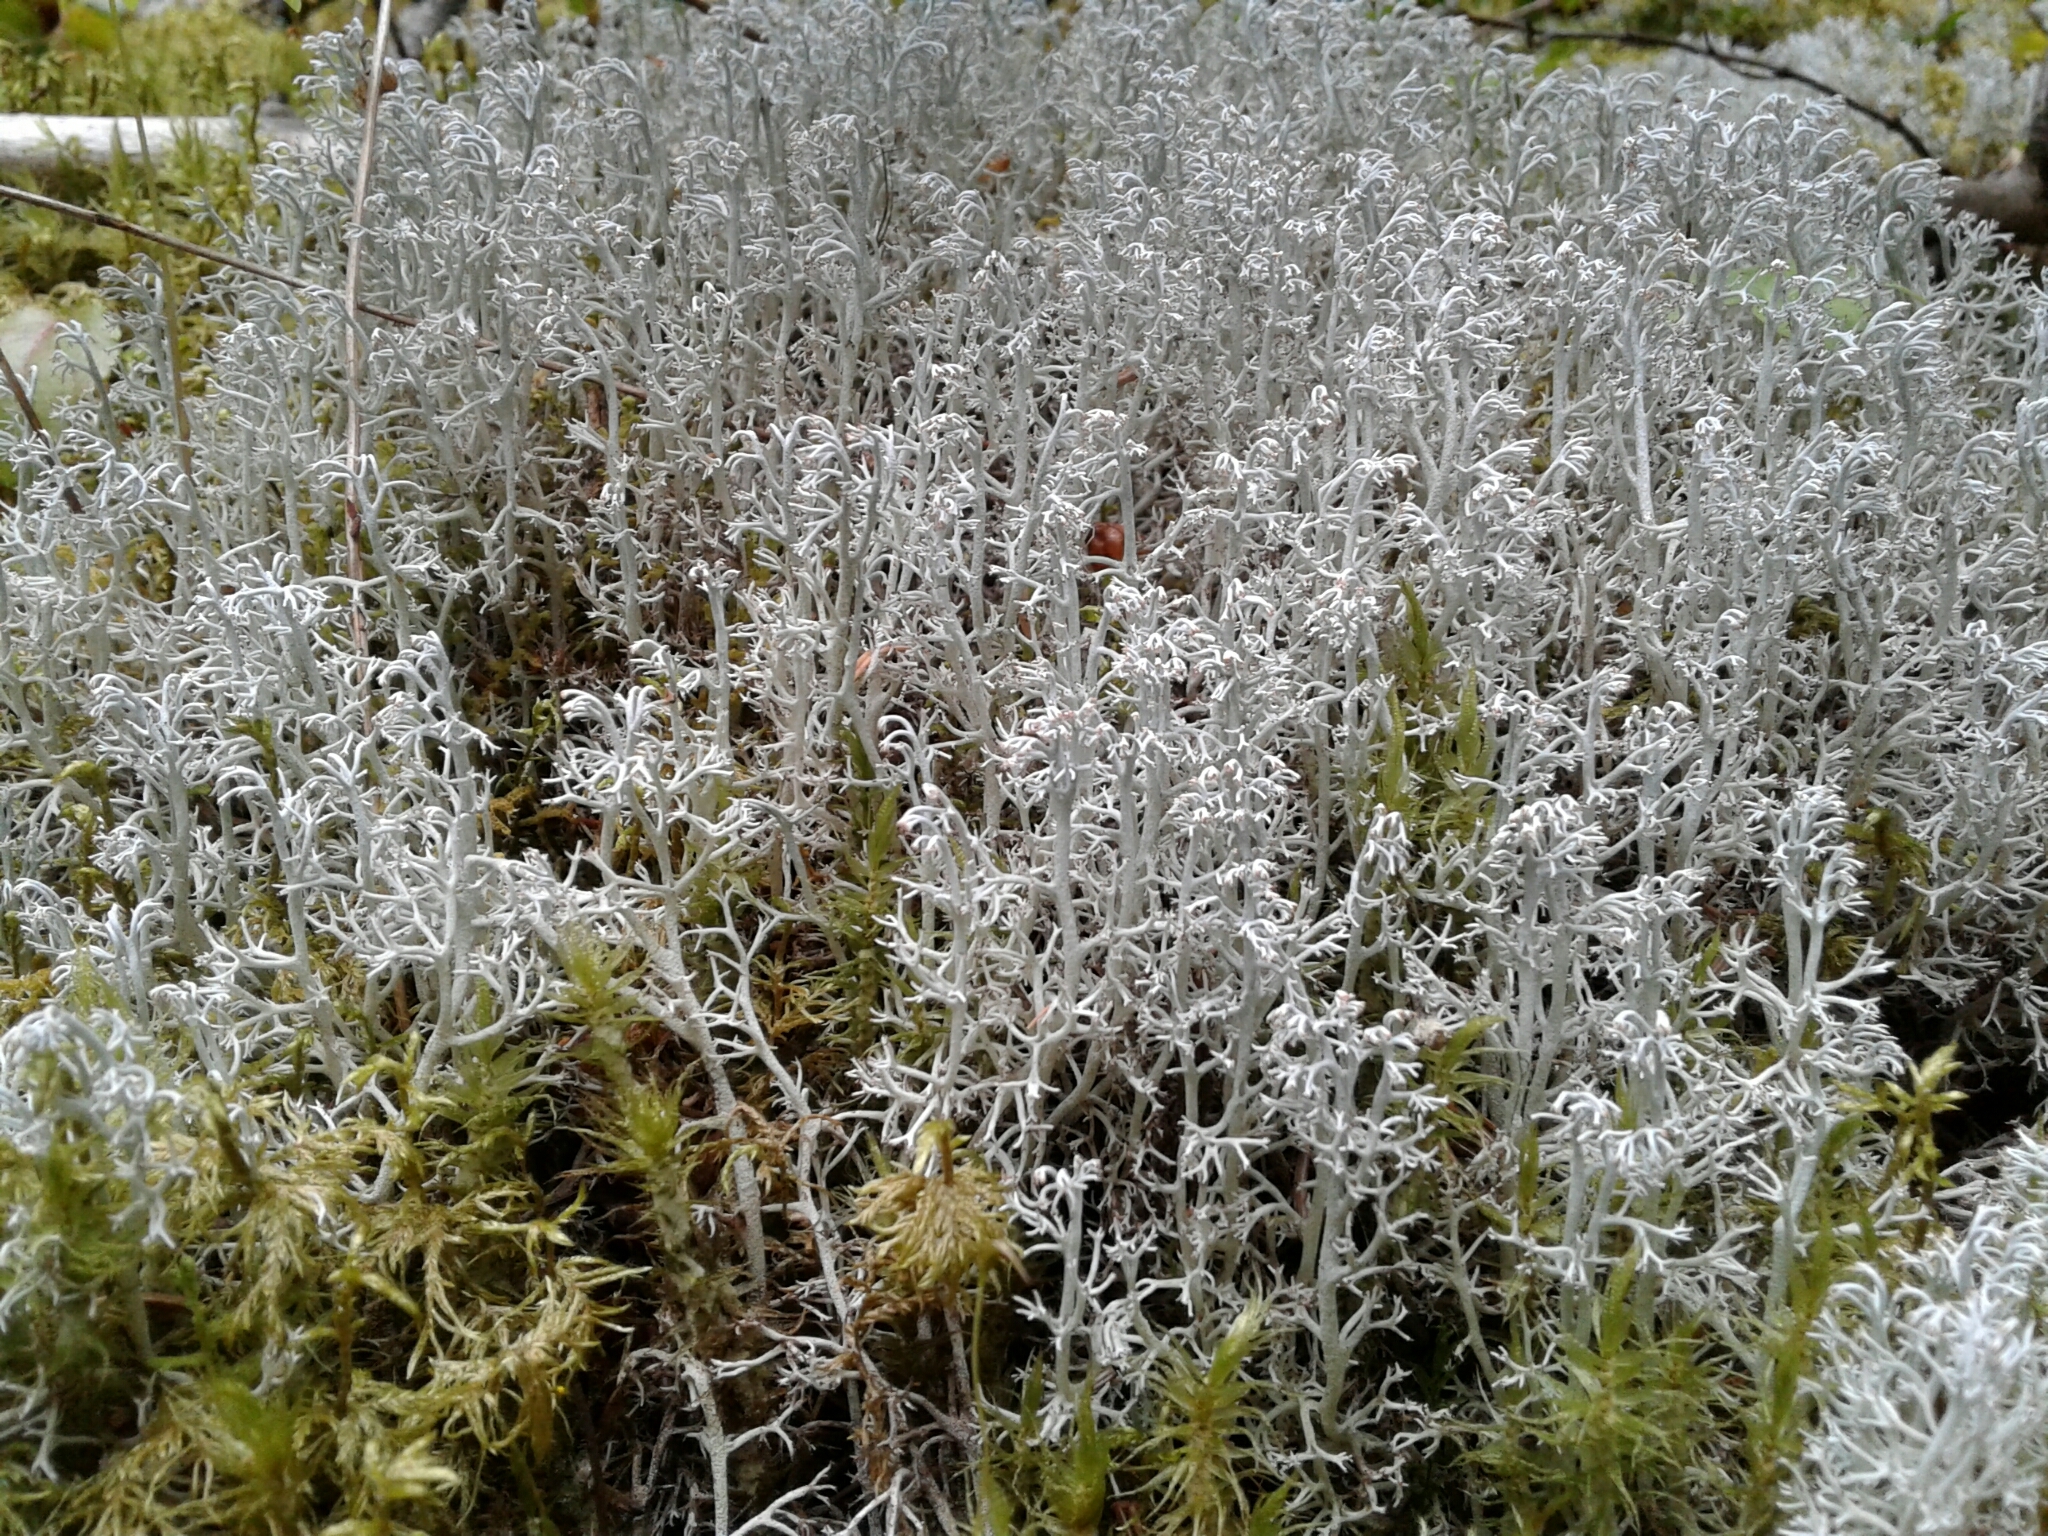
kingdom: Fungi
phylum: Ascomycota
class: Lecanoromycetes
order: Lecanorales
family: Cladoniaceae
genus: Cladonia
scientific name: Cladonia rangiferina
